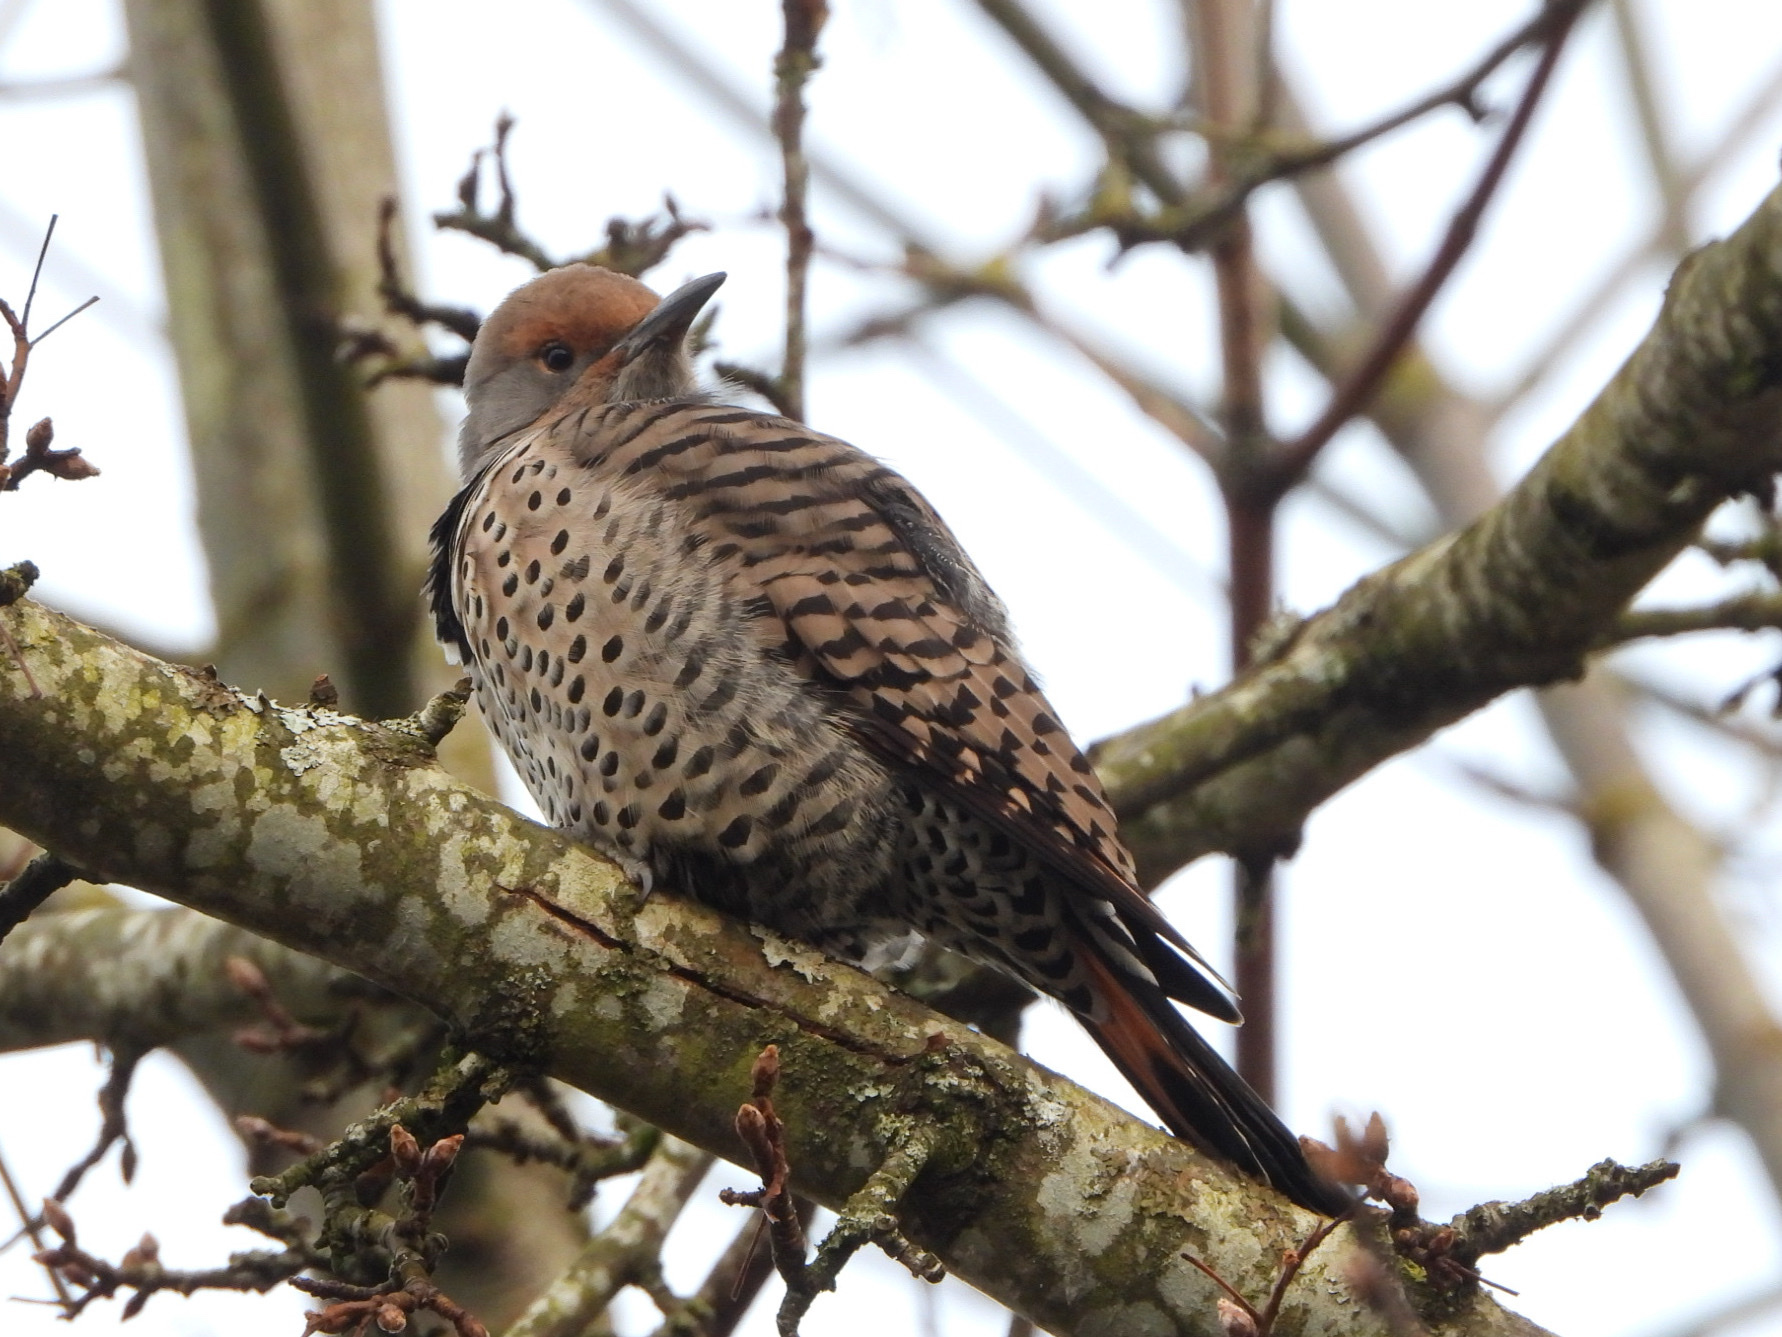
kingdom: Animalia
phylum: Chordata
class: Aves
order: Piciformes
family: Picidae
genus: Colaptes
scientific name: Colaptes auratus
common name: Northern flicker
